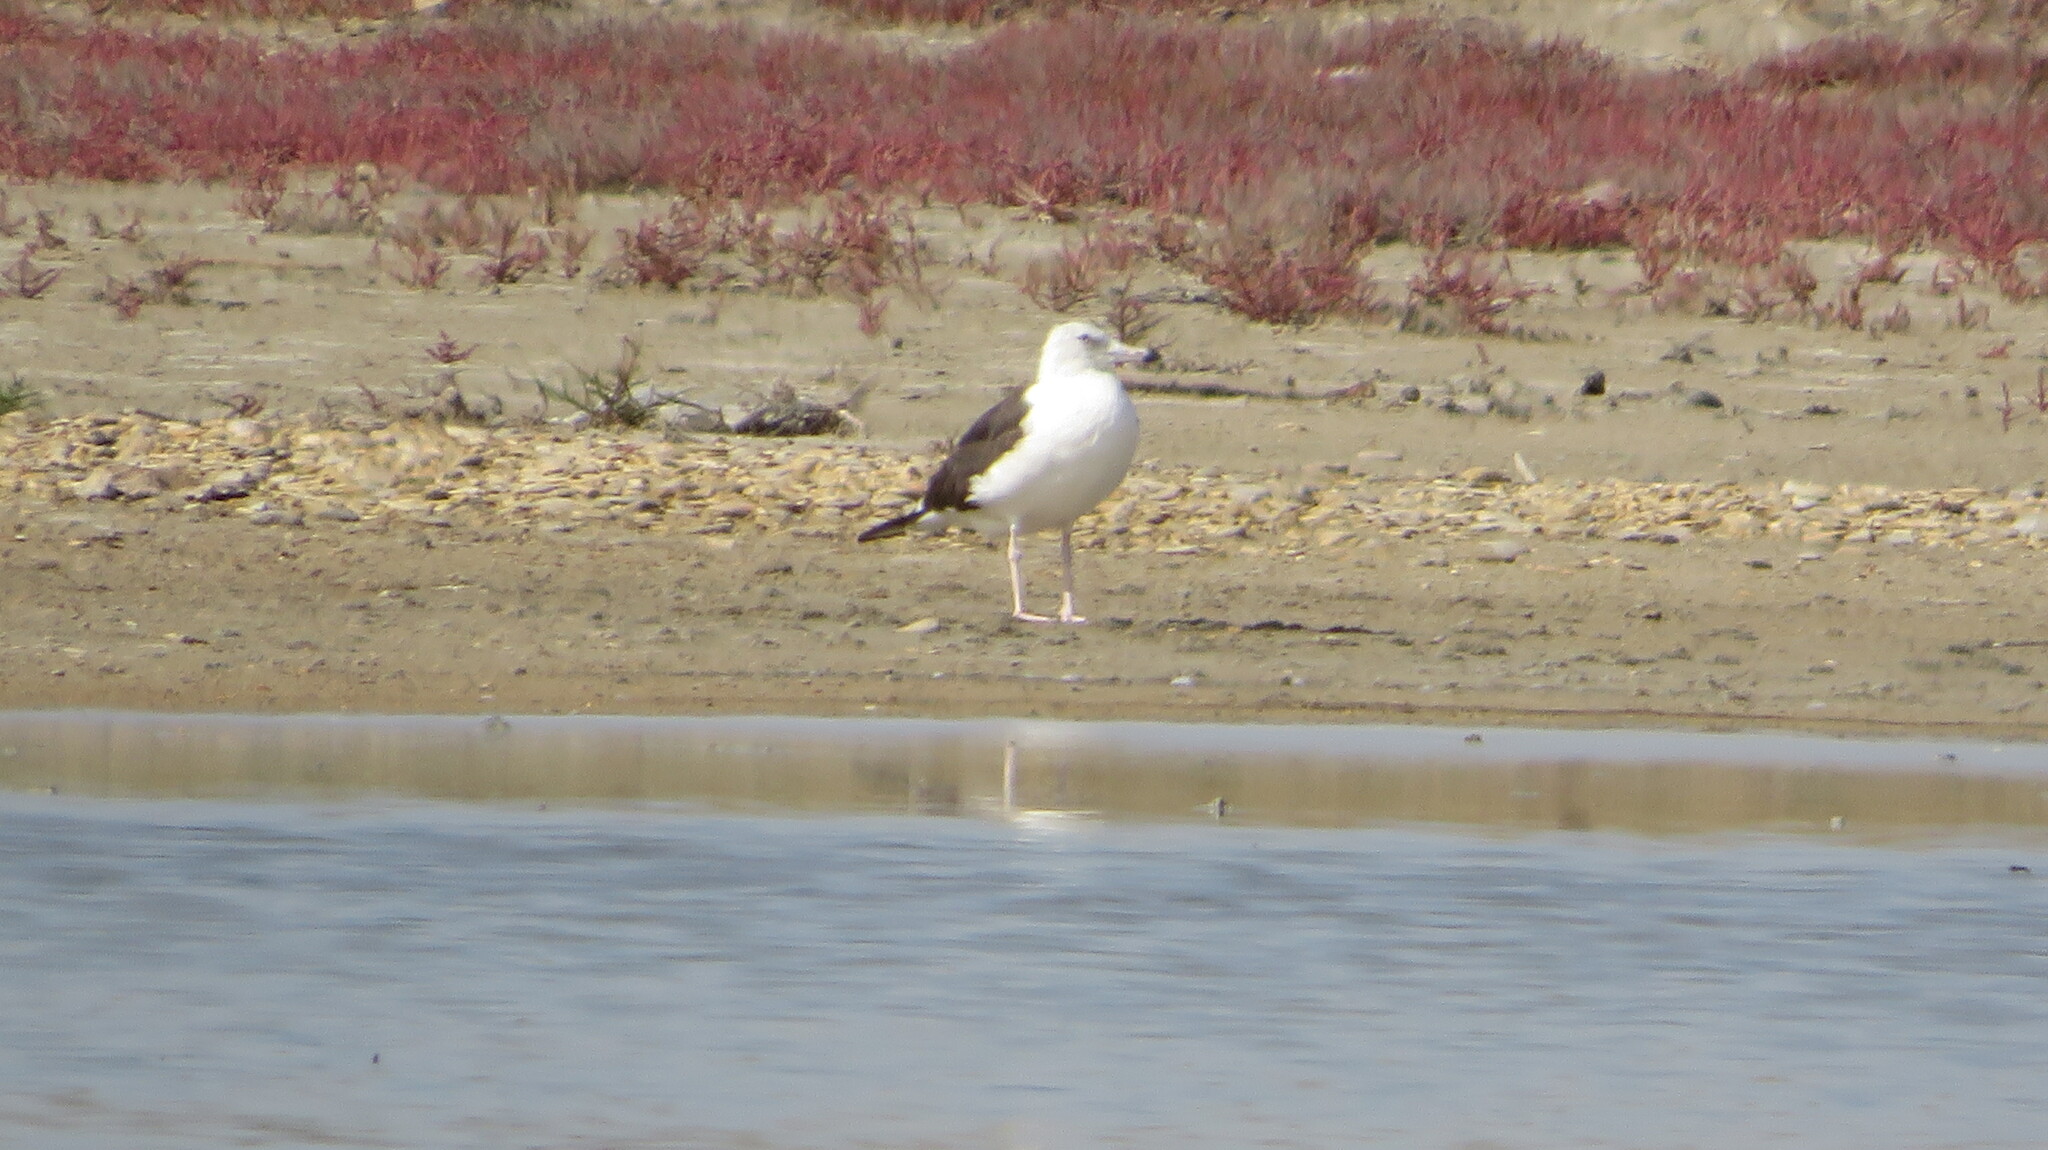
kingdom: Animalia
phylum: Chordata
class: Aves
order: Charadriiformes
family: Laridae
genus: Larus
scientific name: Larus fuscus
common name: Lesser black-backed gull
